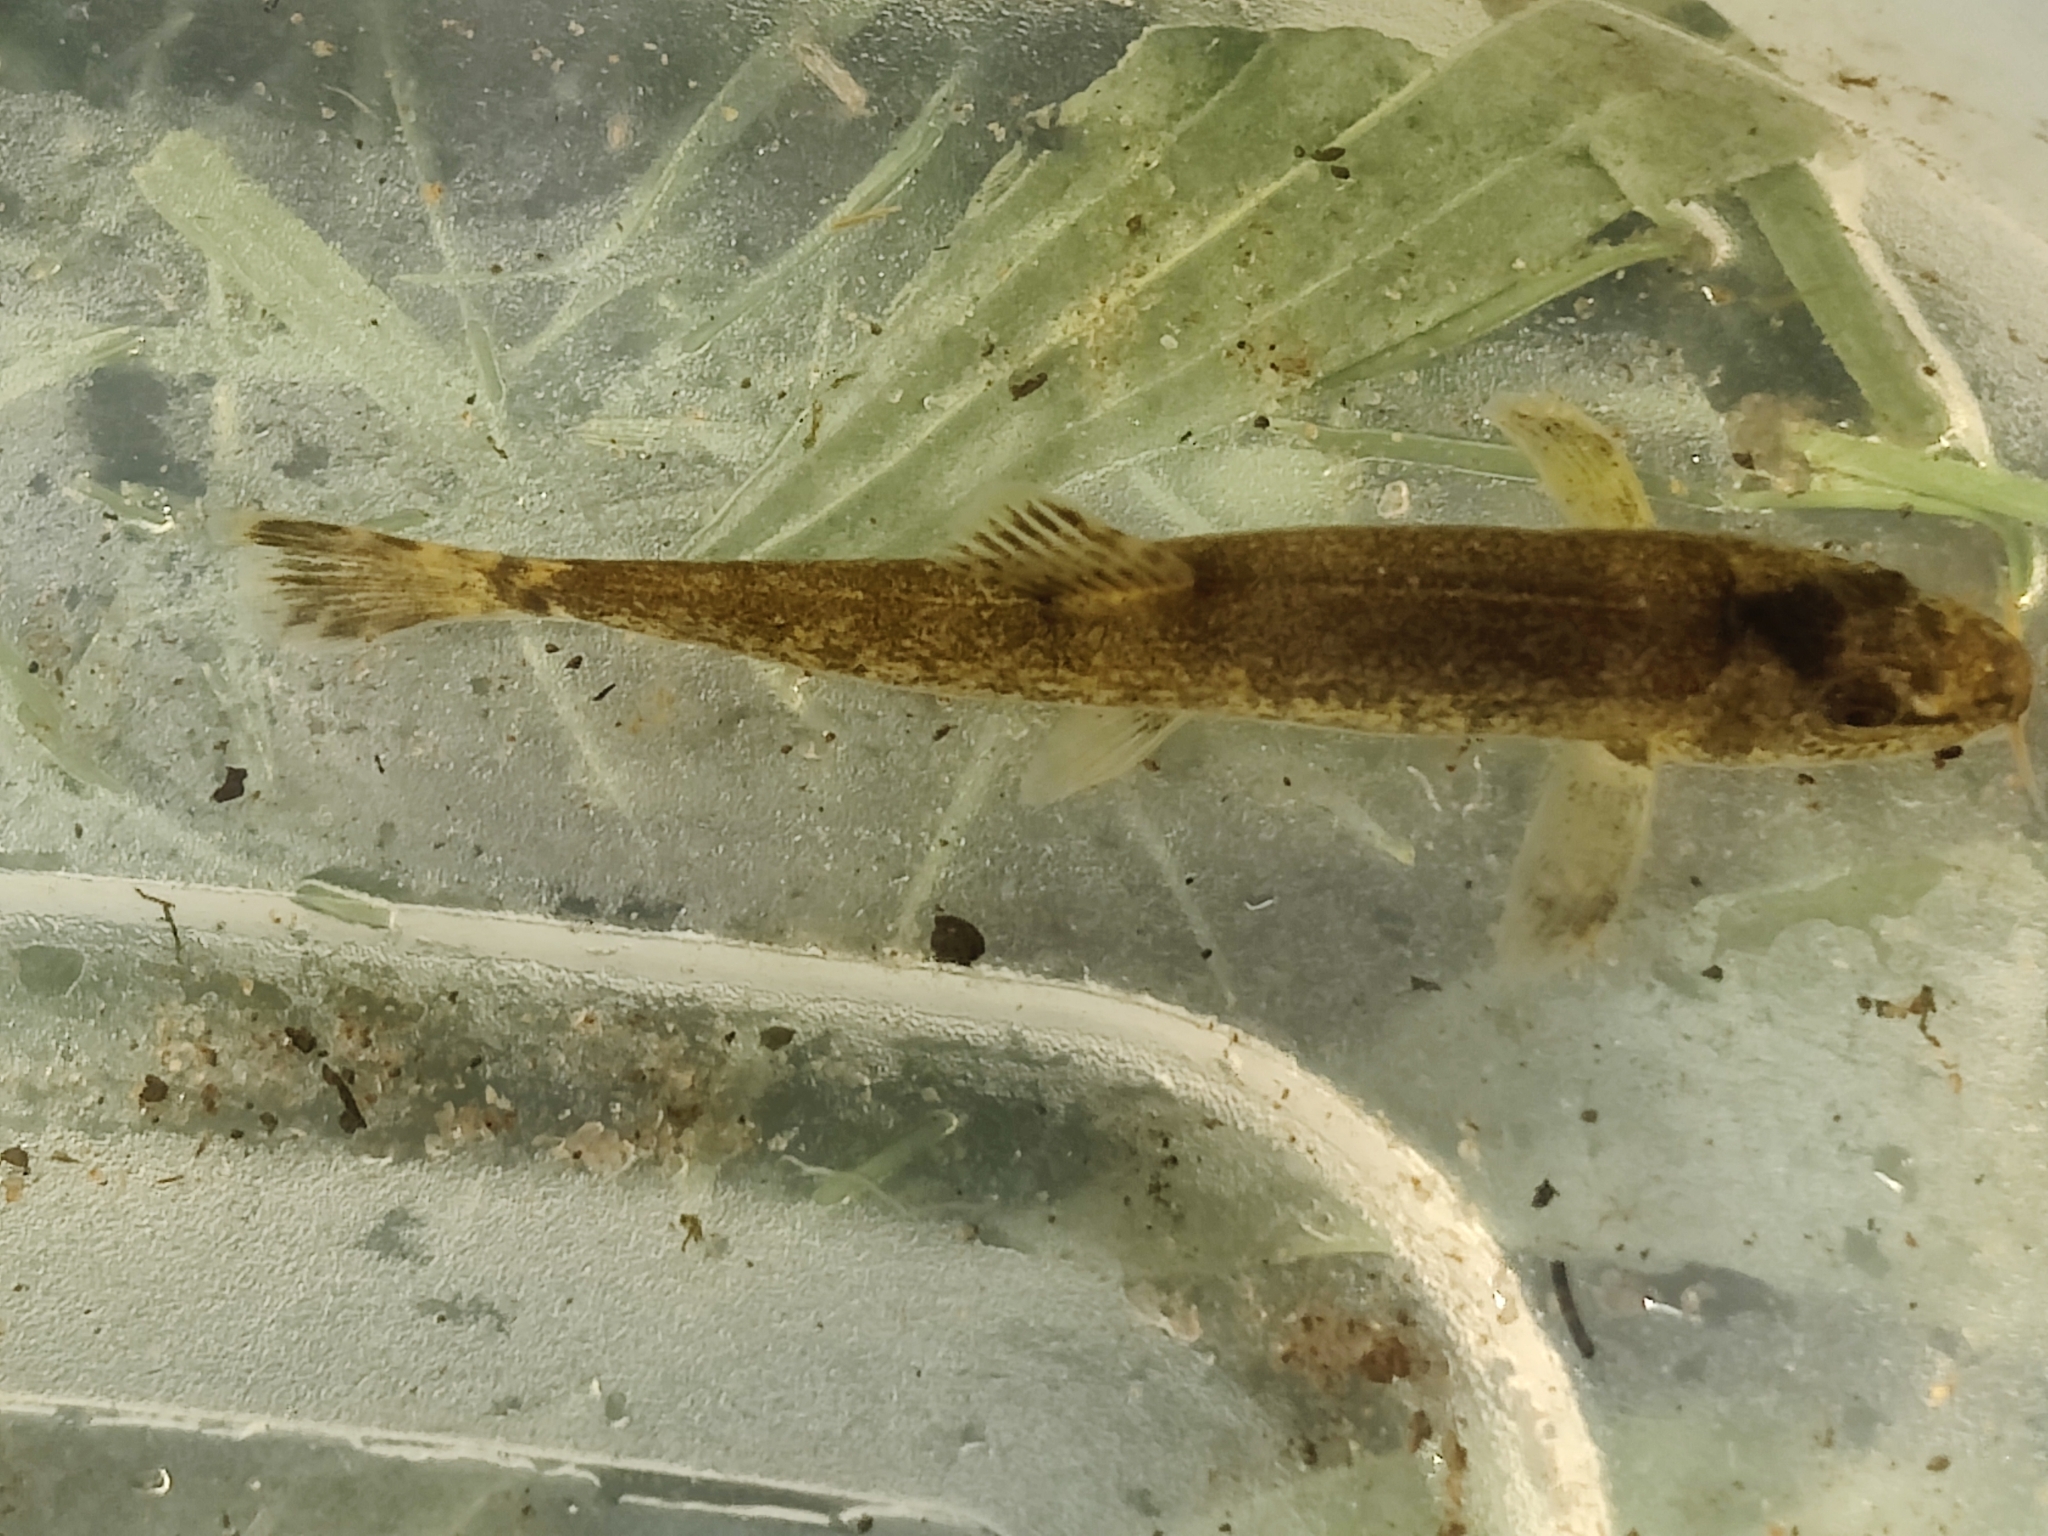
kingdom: Animalia
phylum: Chordata
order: Cypriniformes
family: Nemacheilidae
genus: Barbatula
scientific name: Barbatula barbatula
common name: Stone loach
